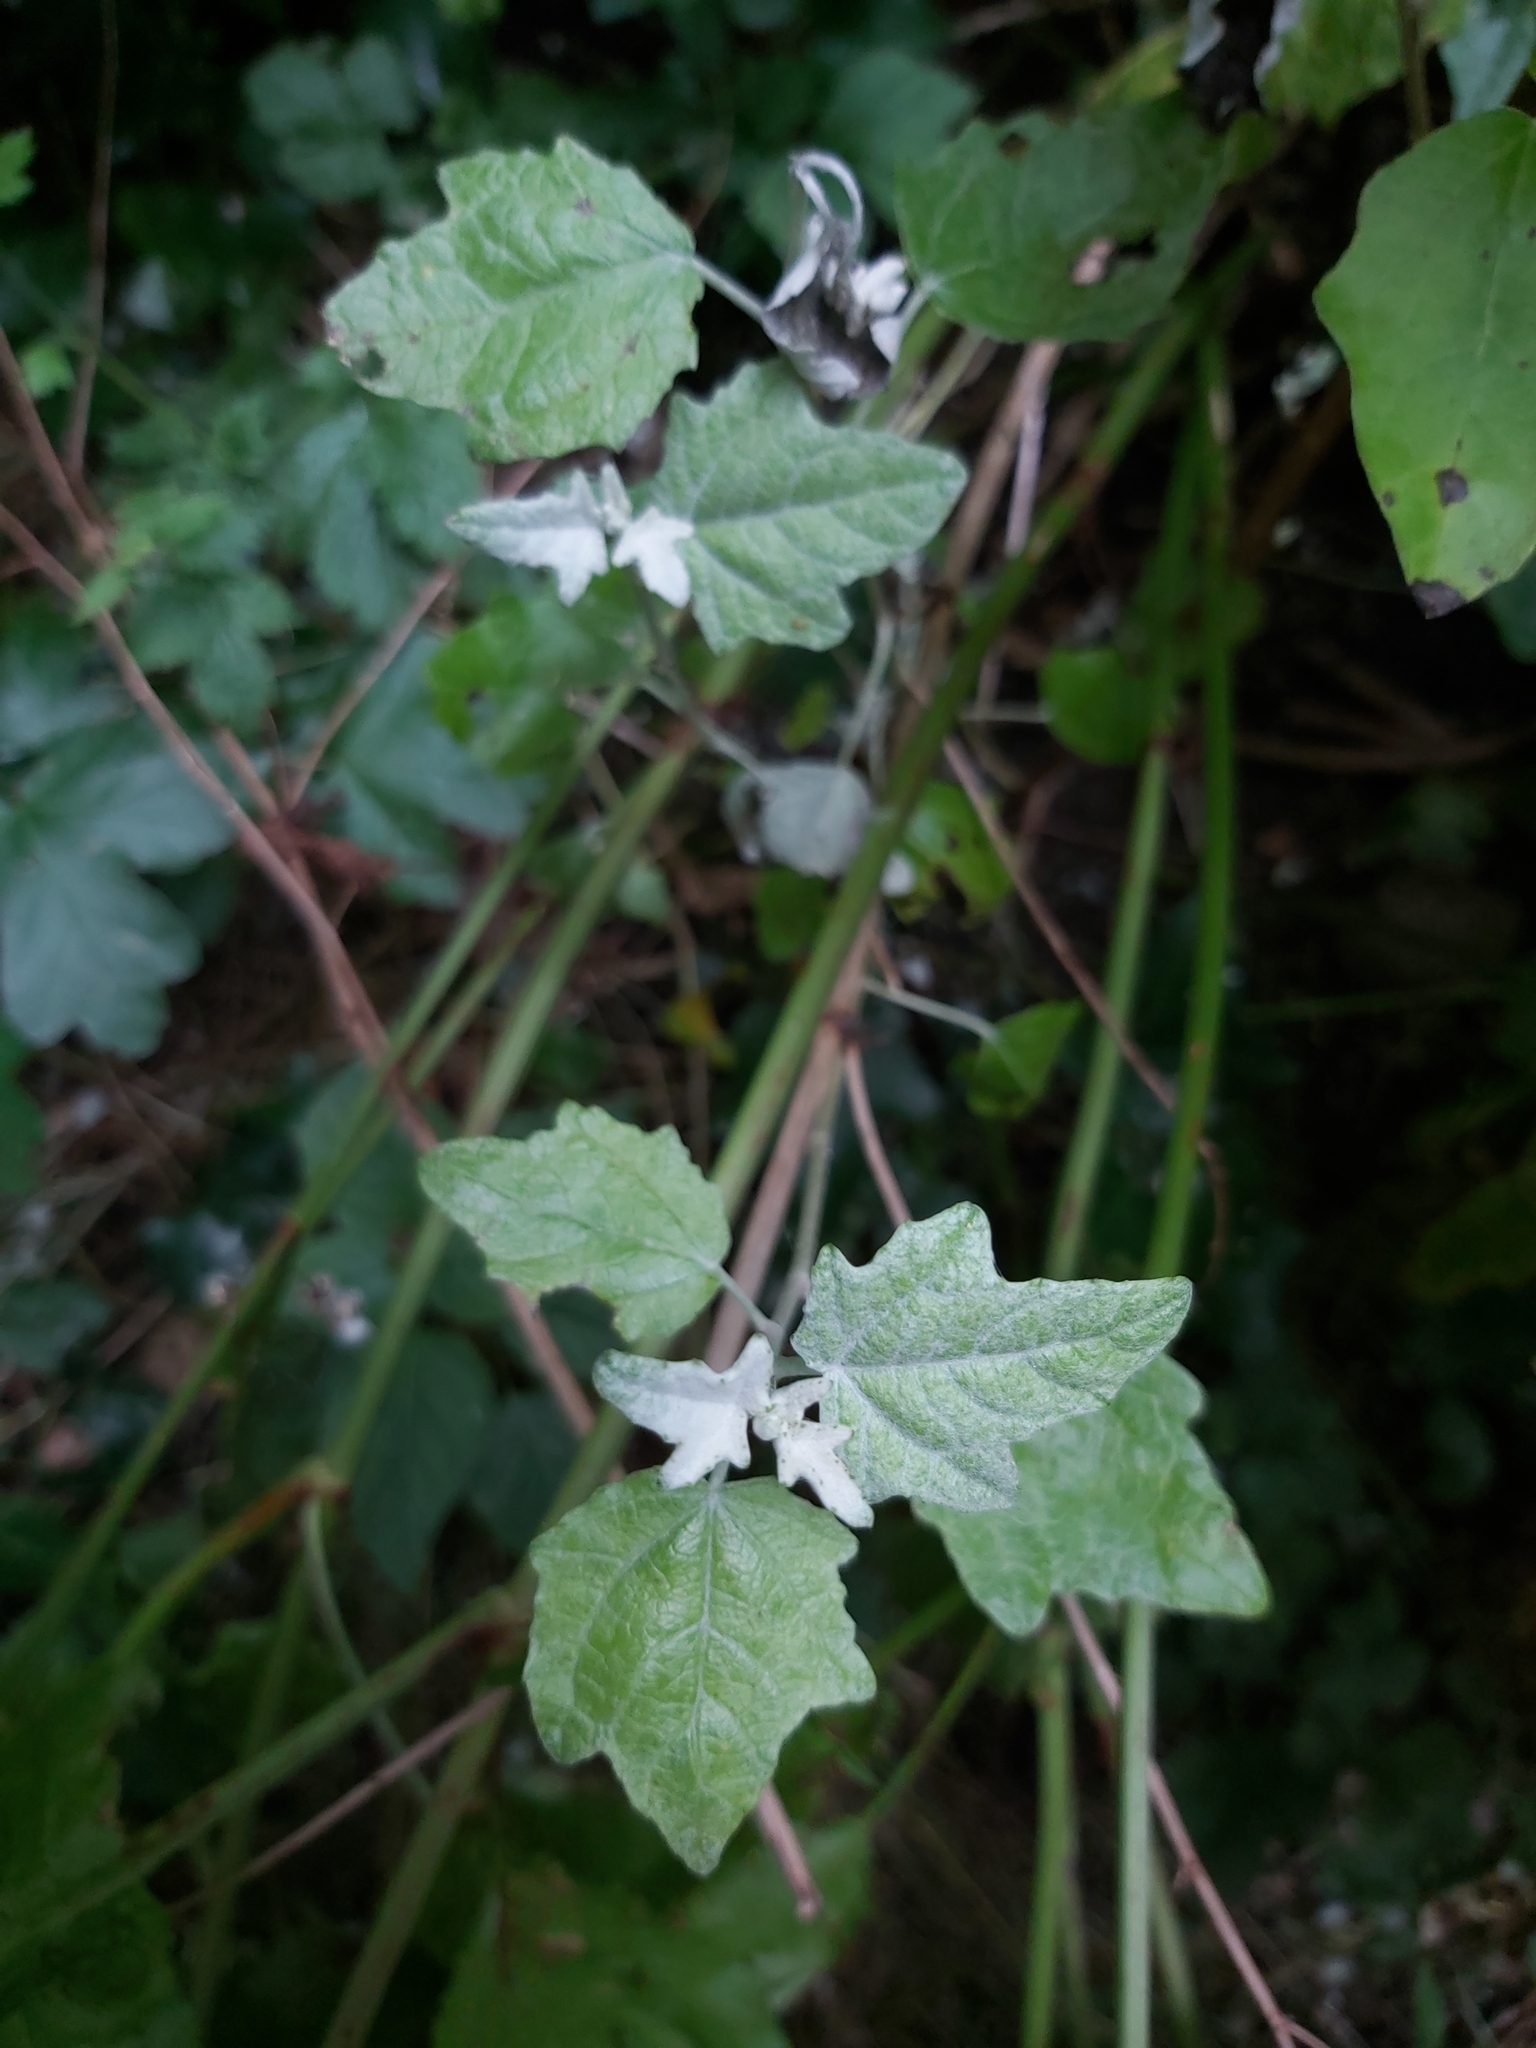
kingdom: Plantae
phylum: Tracheophyta
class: Magnoliopsida
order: Malpighiales
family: Salicaceae
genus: Populus
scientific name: Populus alba
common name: White poplar
